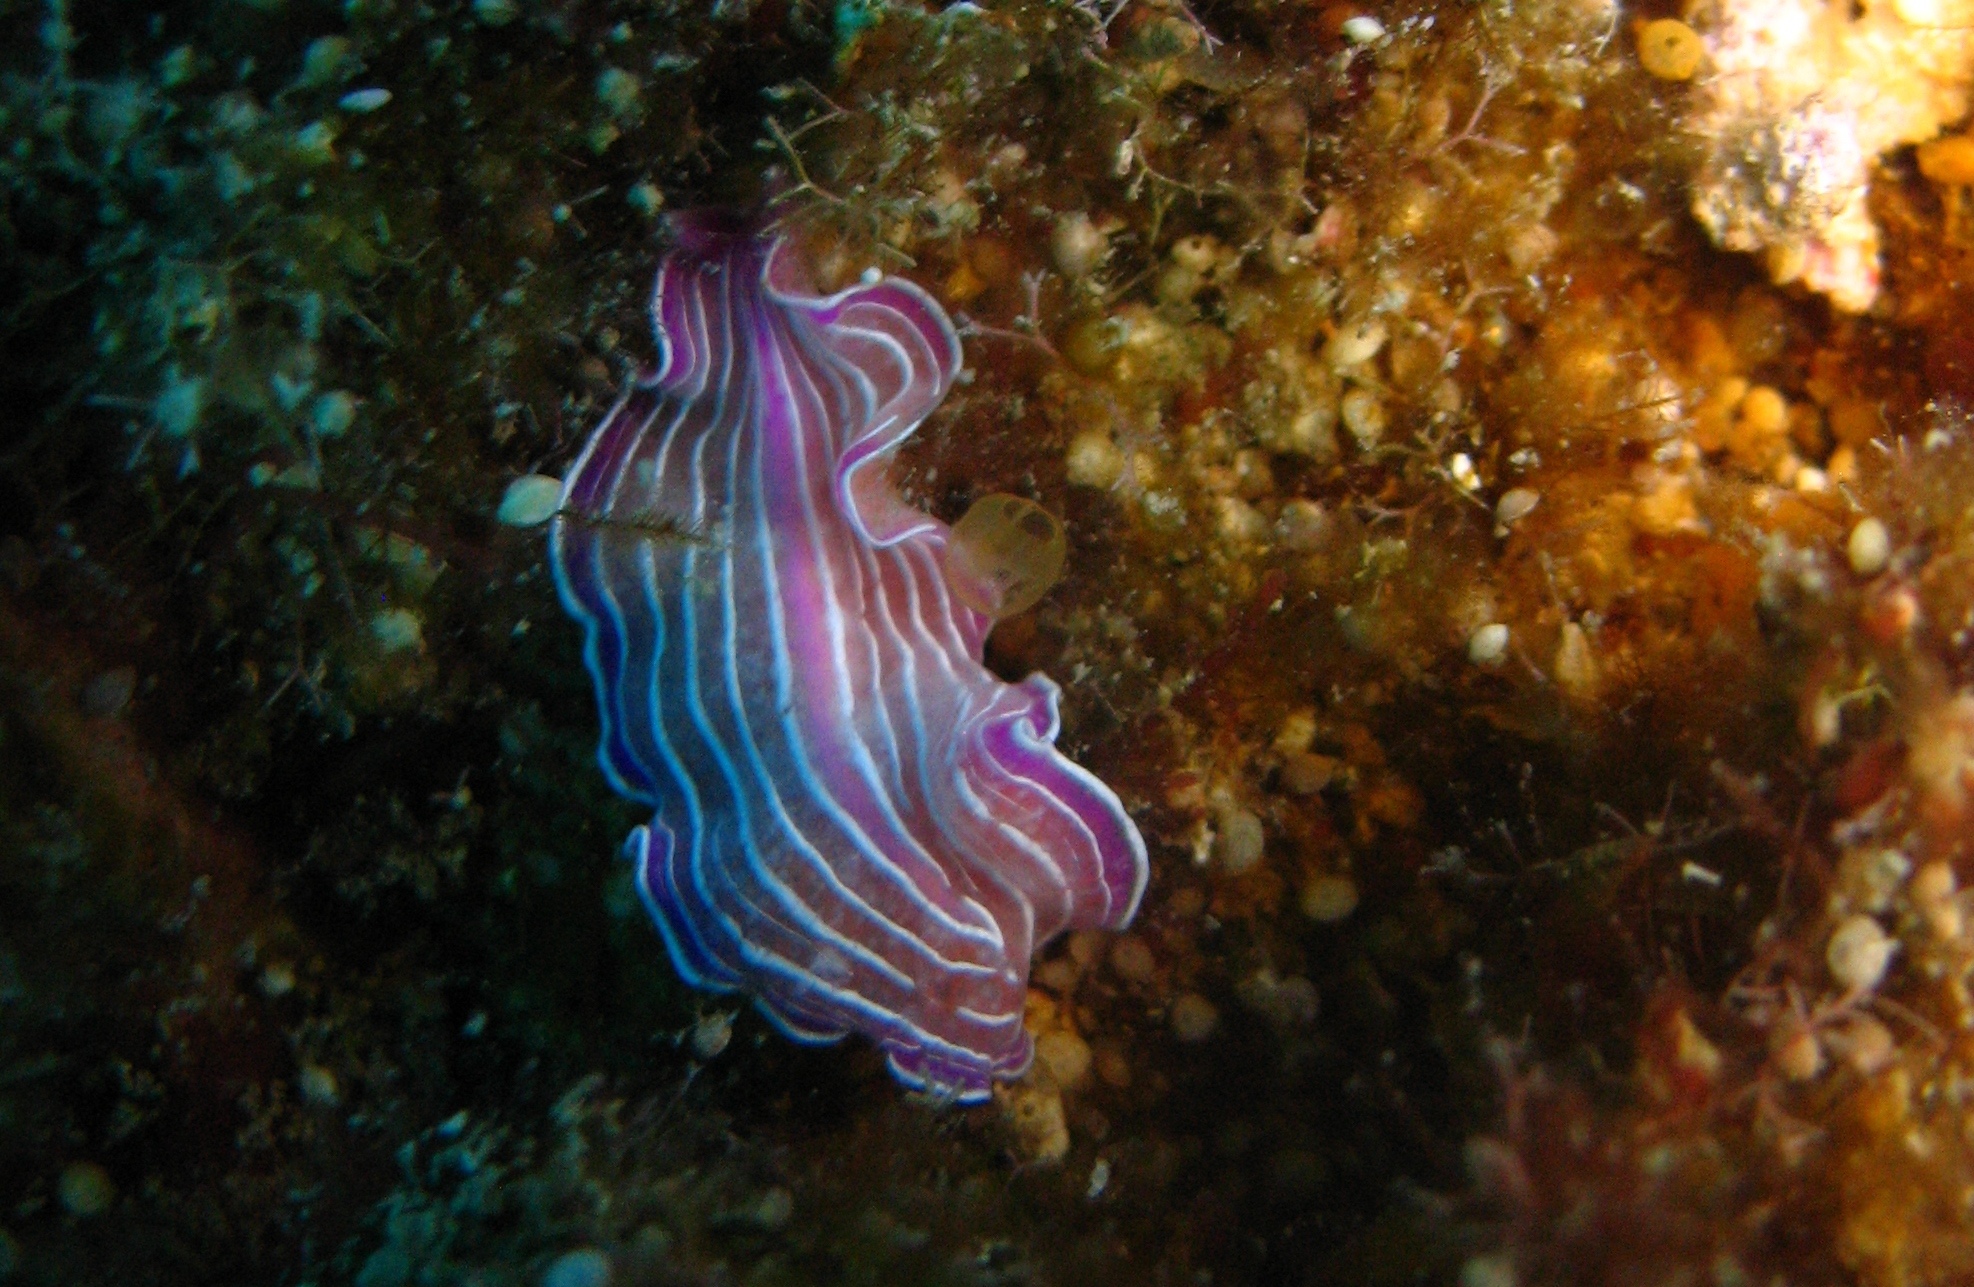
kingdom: Animalia
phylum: Platyhelminthes
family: Euryleptidae
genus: Prostheceraeus
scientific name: Prostheceraeus roseus
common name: Pink flatworm
